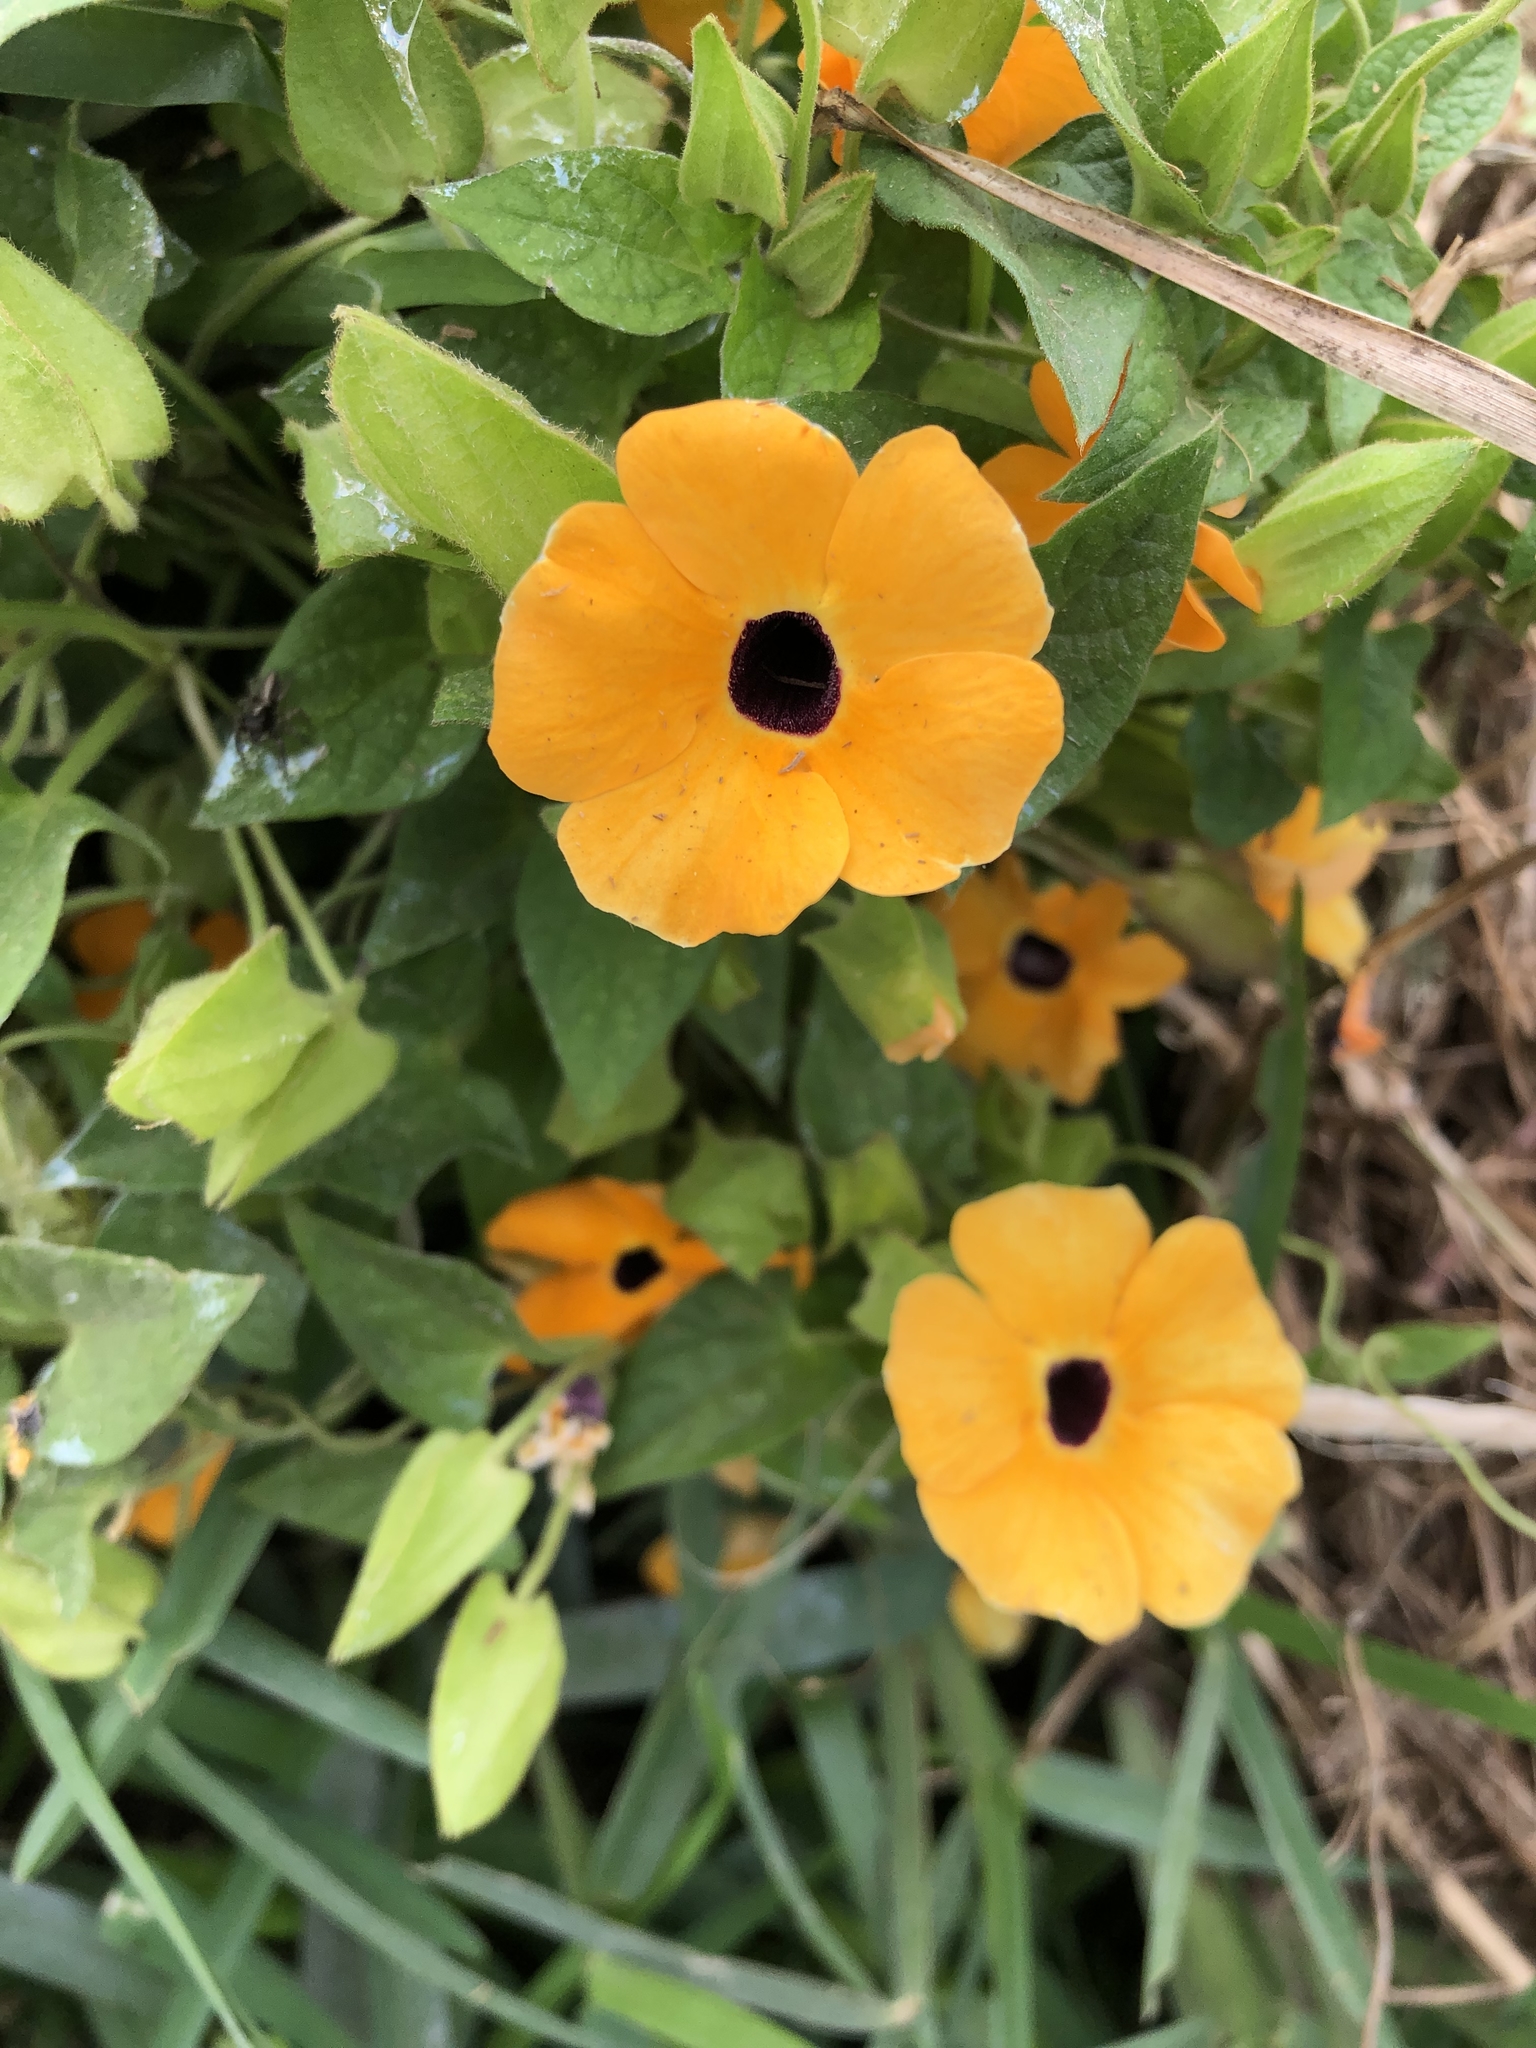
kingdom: Plantae
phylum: Tracheophyta
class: Magnoliopsida
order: Lamiales
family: Acanthaceae
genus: Thunbergia
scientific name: Thunbergia alata
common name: Blackeyed susan vine
